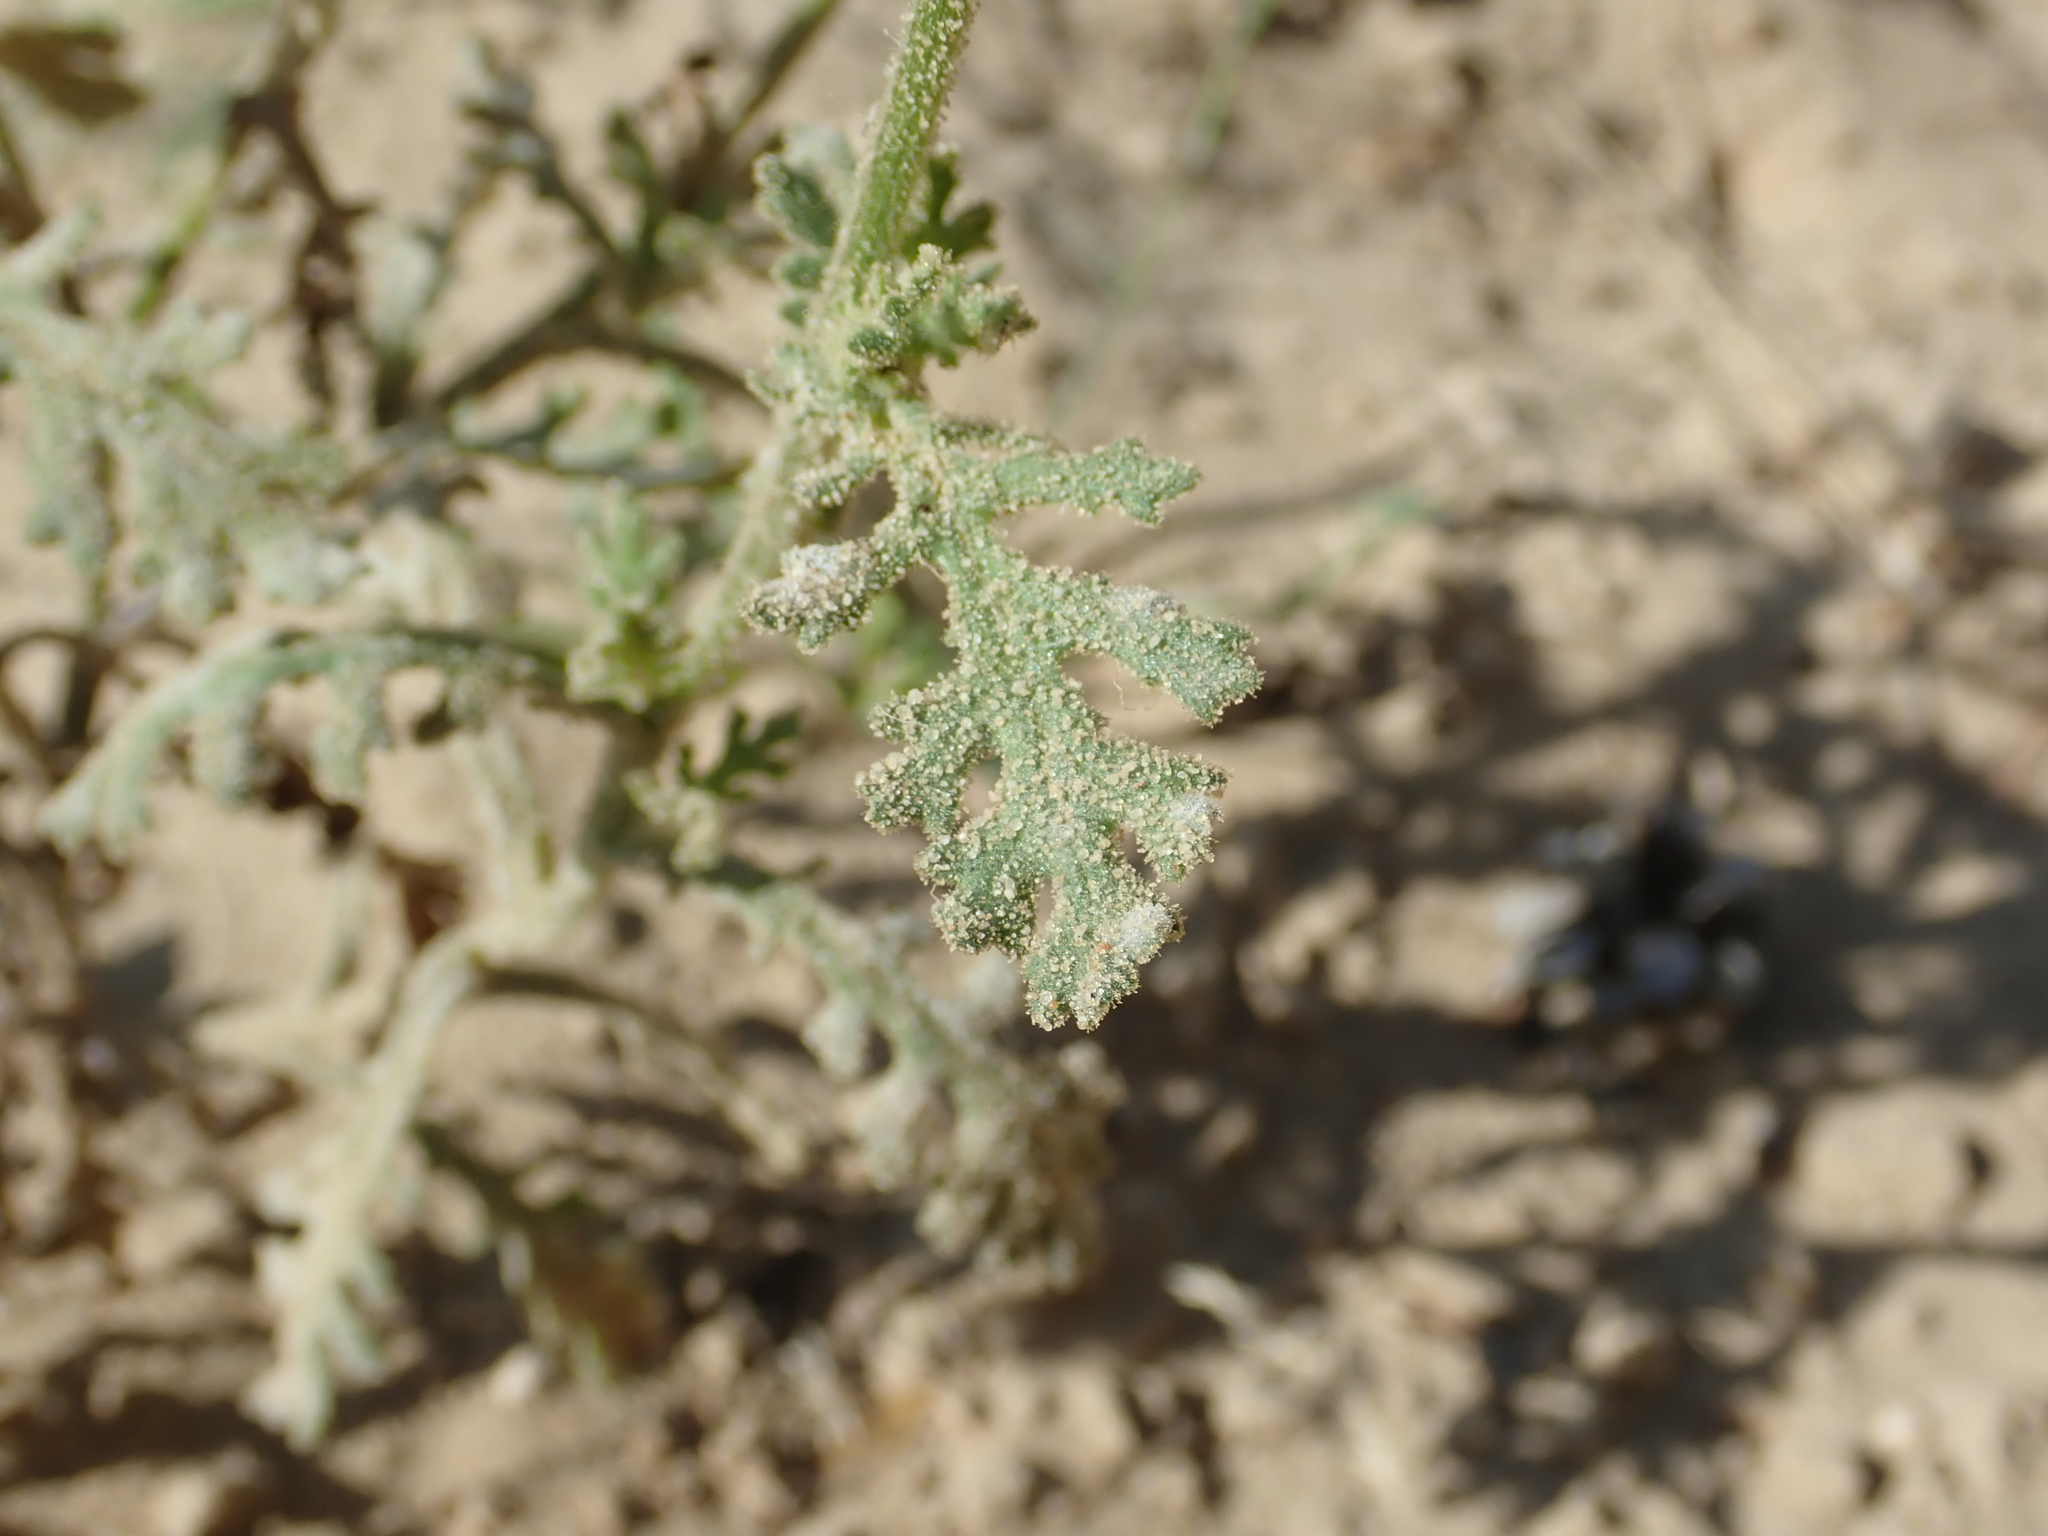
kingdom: Plantae
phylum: Tracheophyta
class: Magnoliopsida
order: Asterales
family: Asteraceae
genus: Senecio
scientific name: Senecio viscosus
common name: Sticky groundsel
